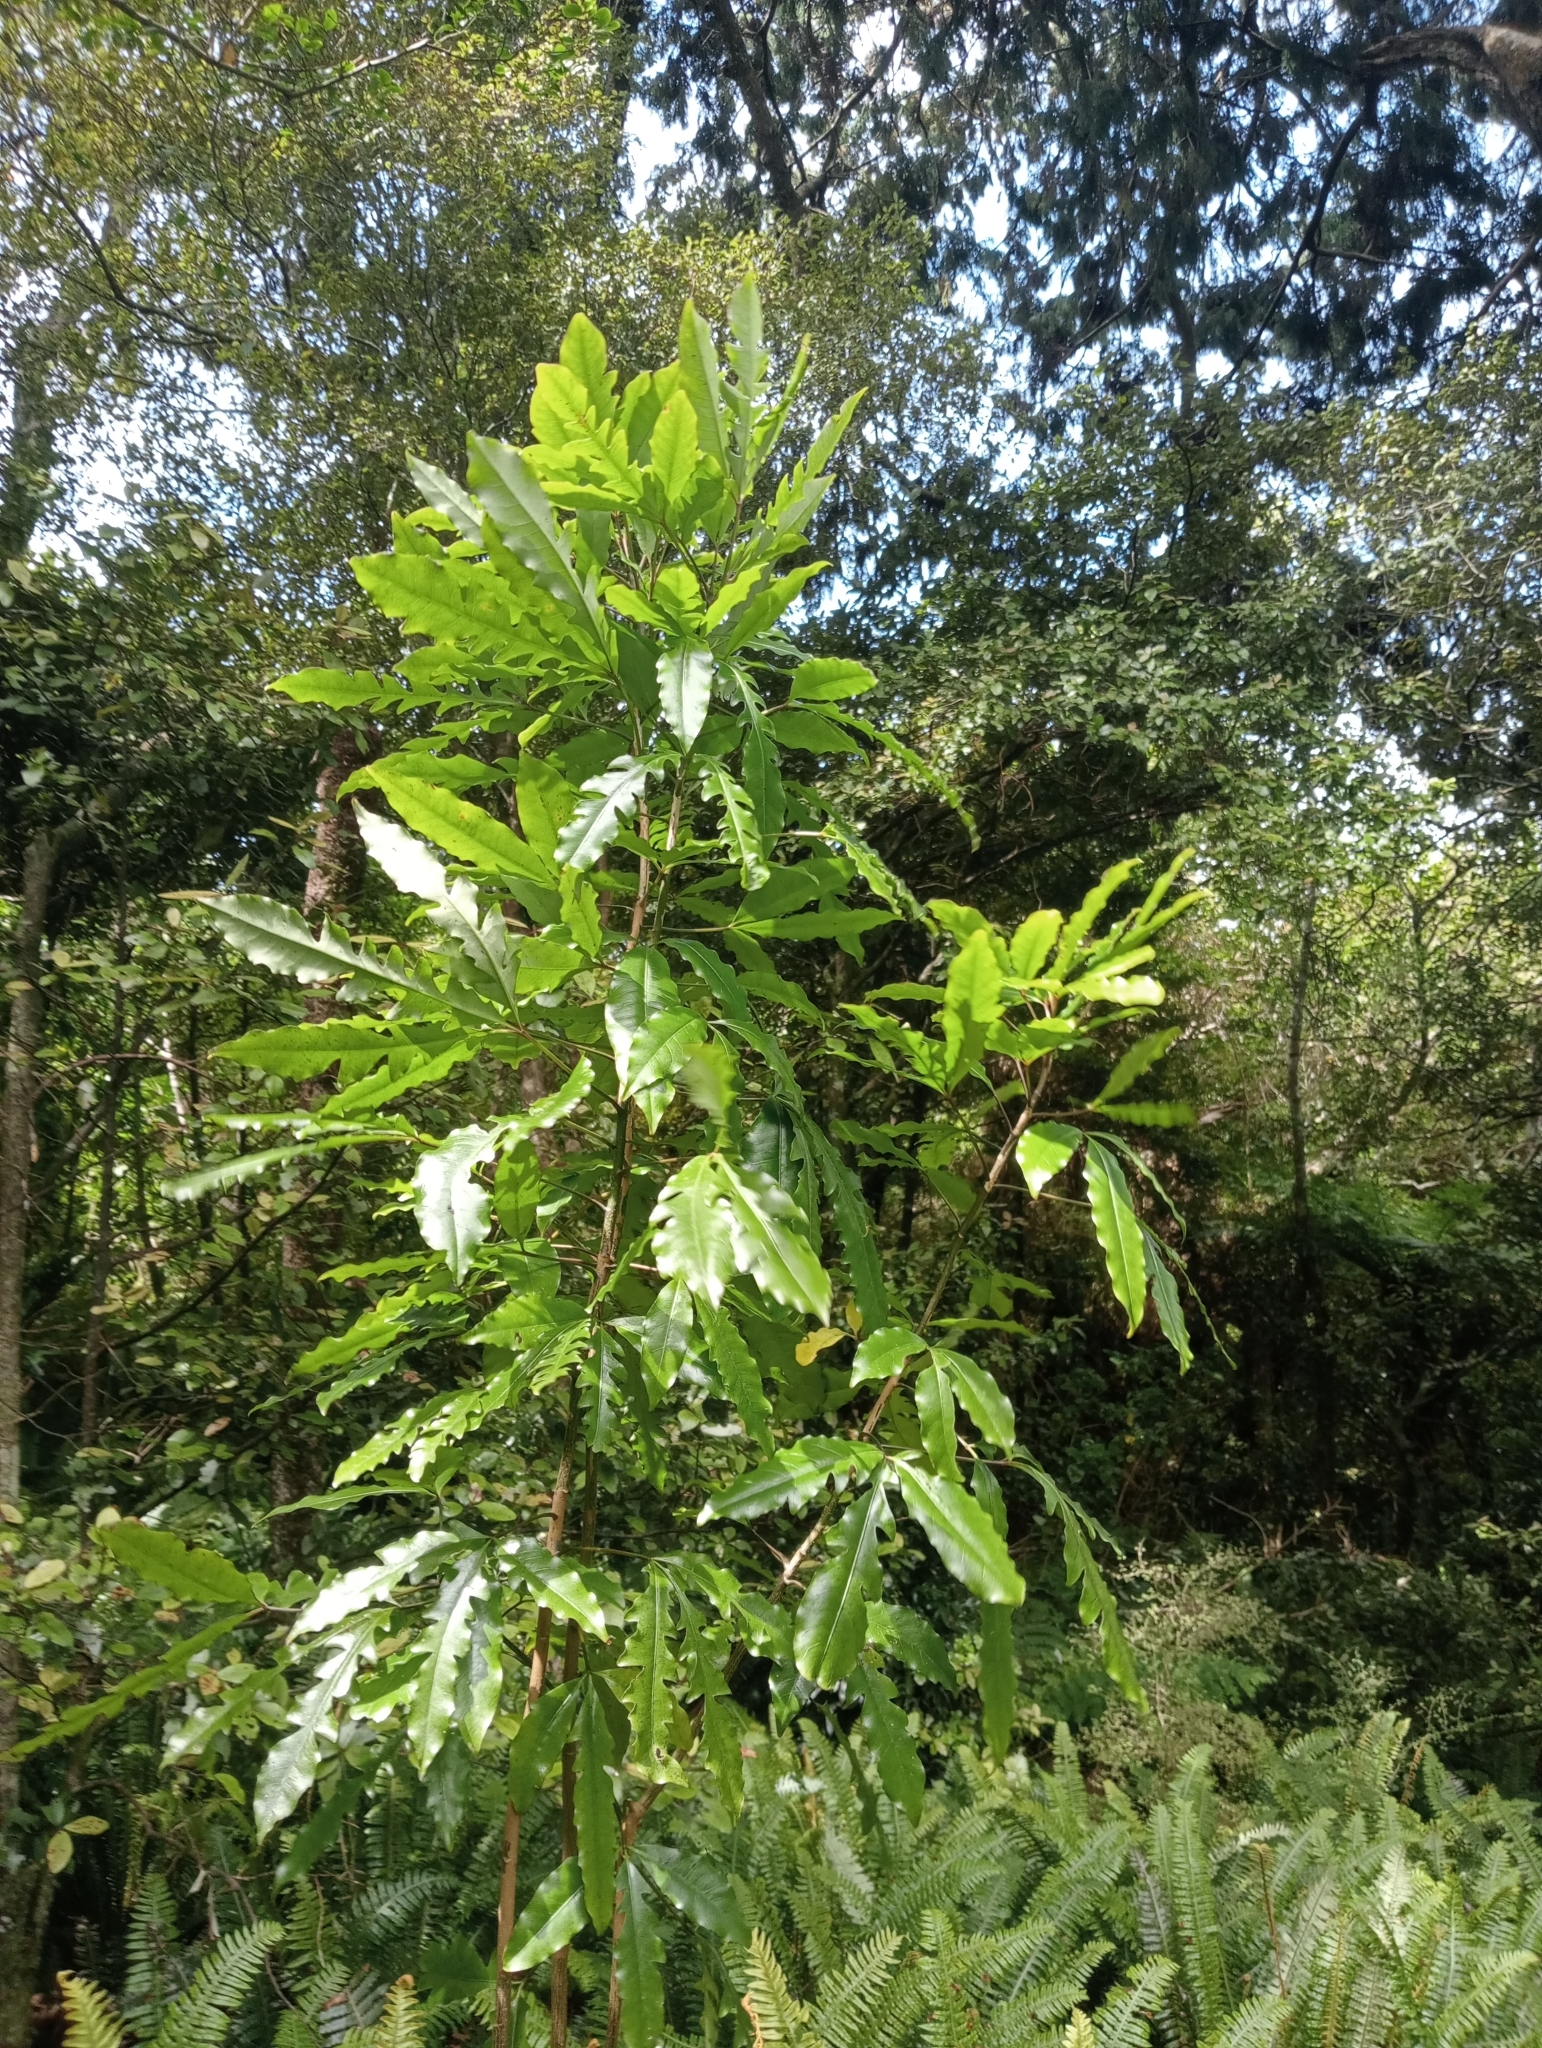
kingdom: Plantae
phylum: Tracheophyta
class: Magnoliopsida
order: Apiales
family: Araliaceae
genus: Raukaua
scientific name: Raukaua edgerleyi
